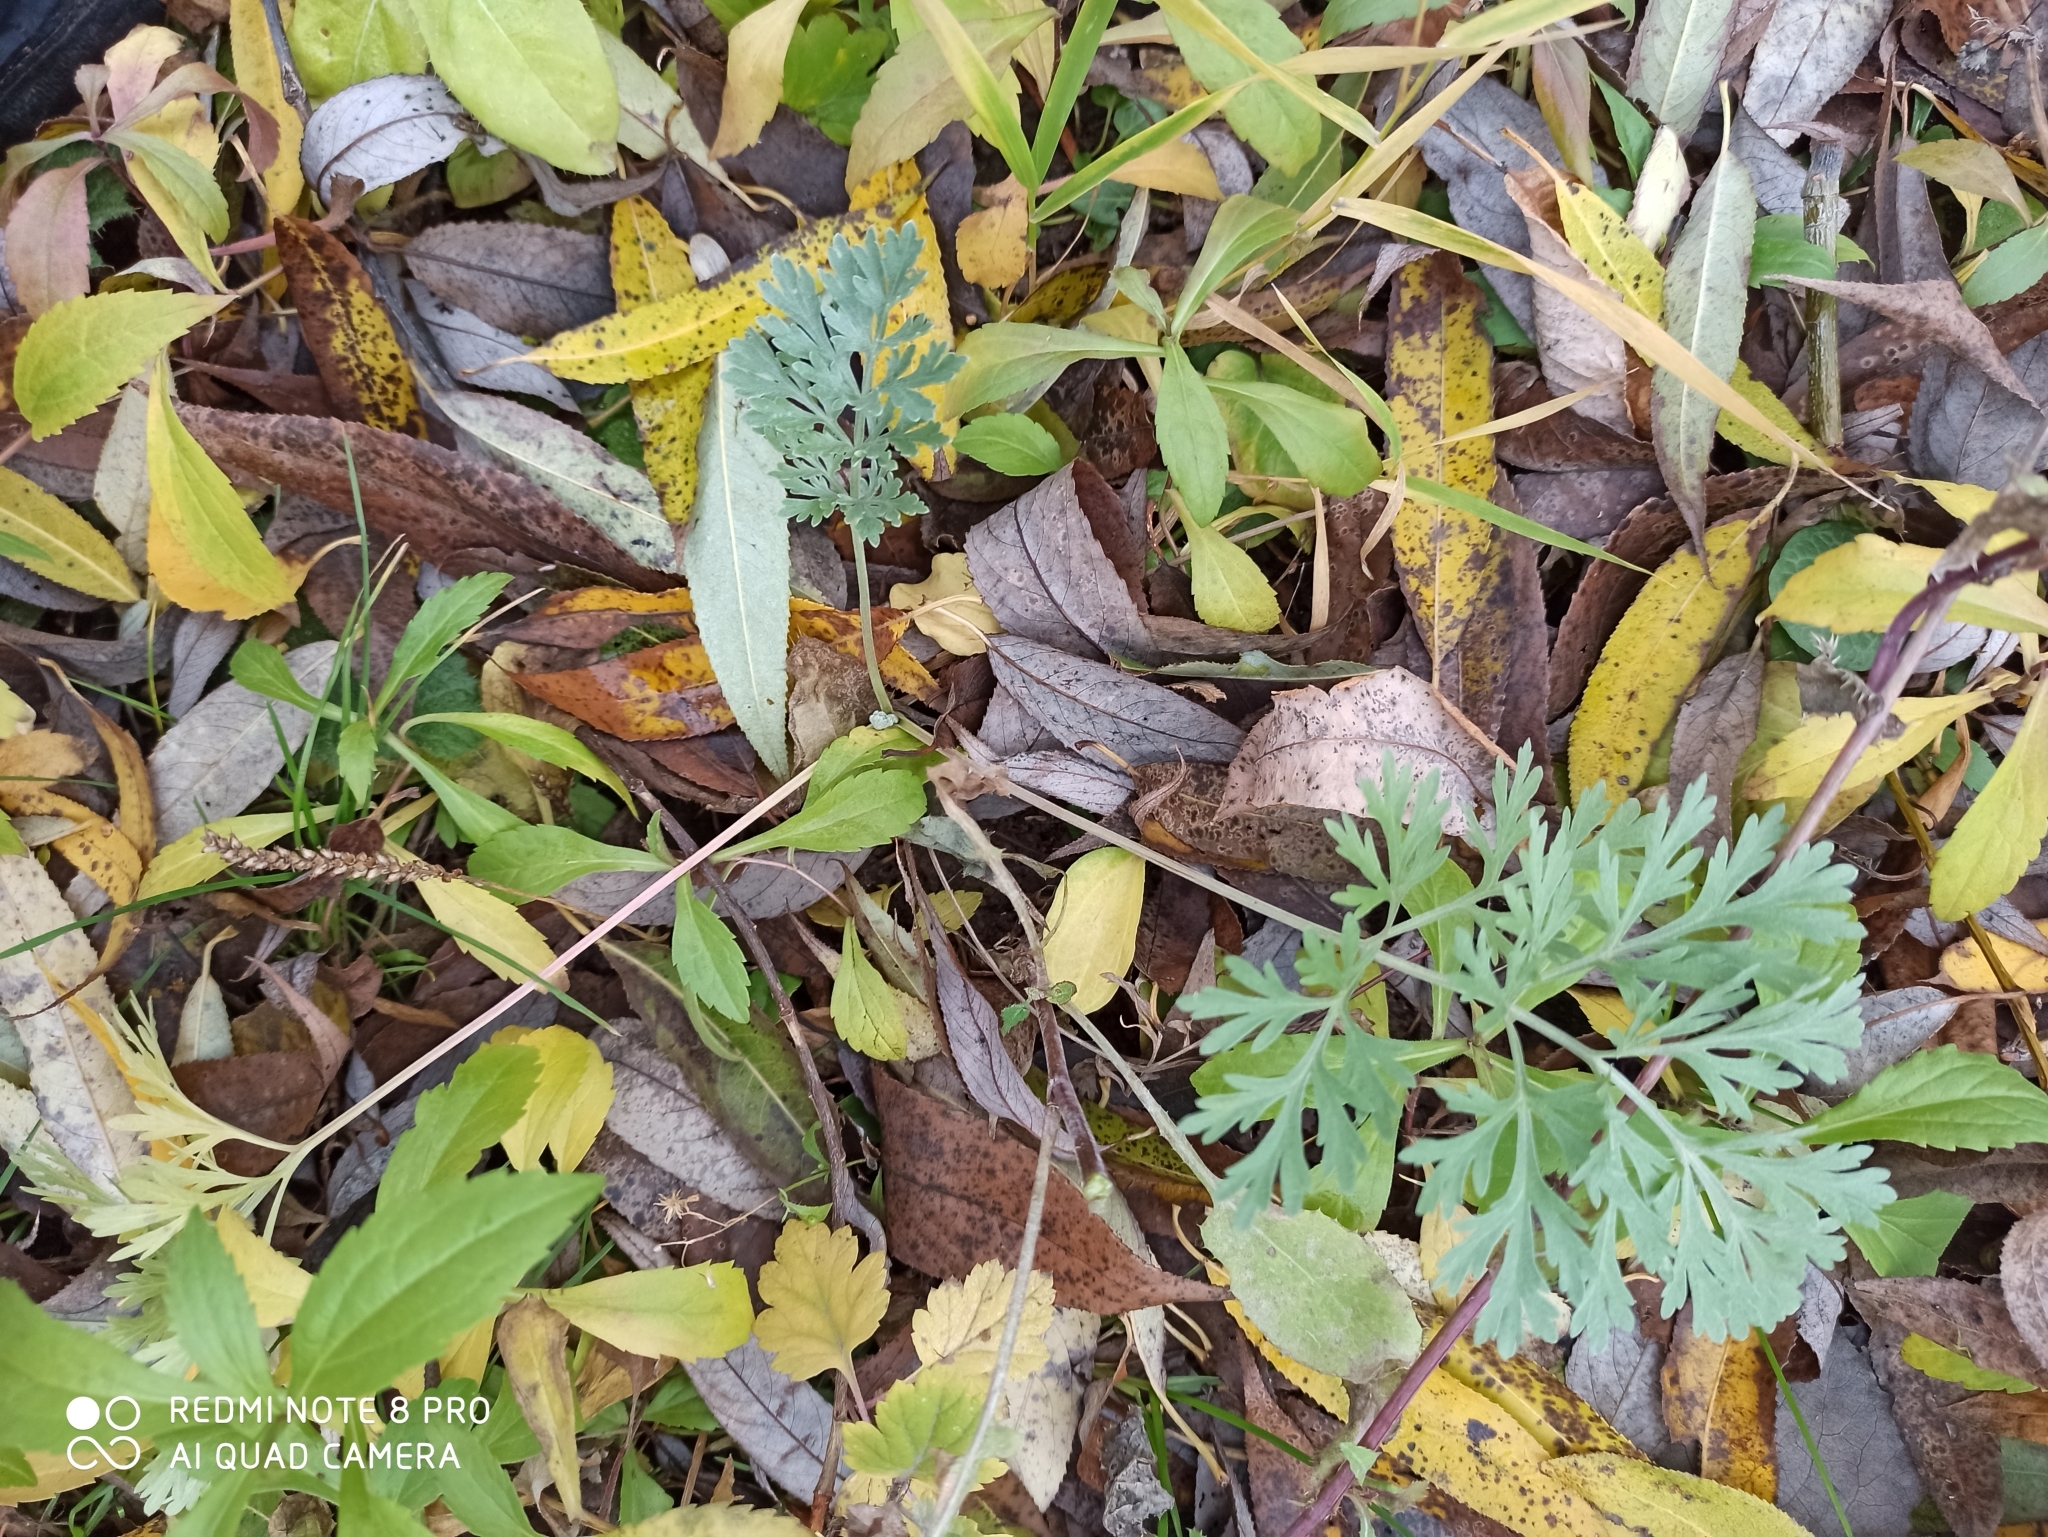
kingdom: Plantae
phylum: Tracheophyta
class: Magnoliopsida
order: Asterales
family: Asteraceae
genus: Artemisia
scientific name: Artemisia absinthium
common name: Wormwood
